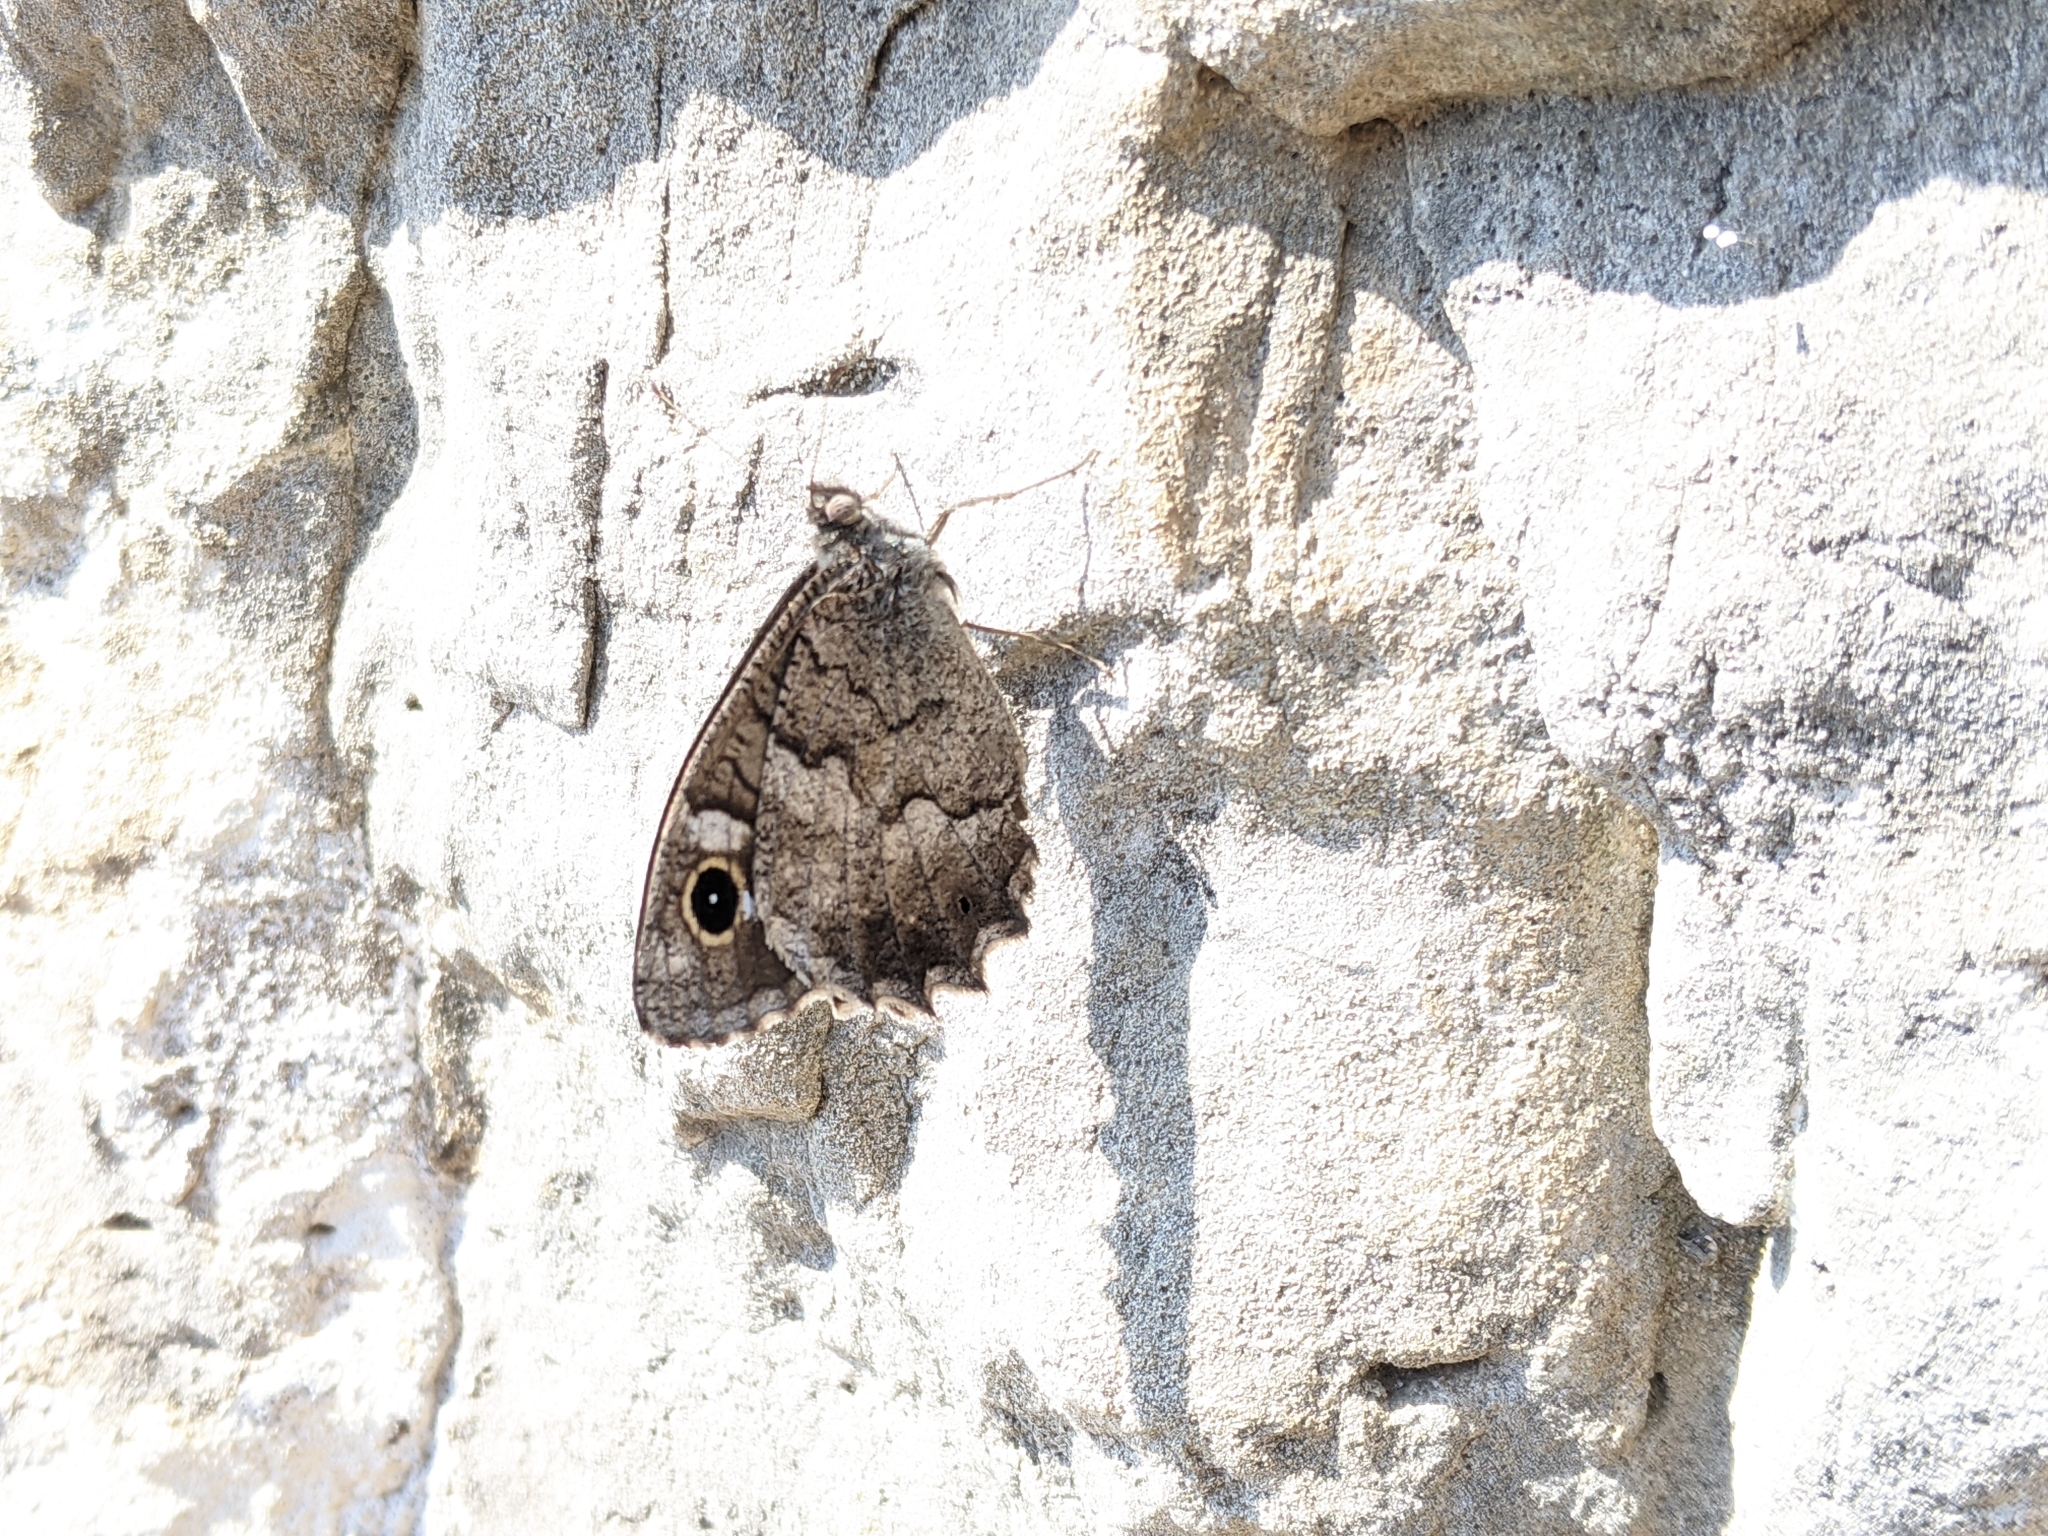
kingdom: Animalia
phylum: Arthropoda
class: Insecta
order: Lepidoptera
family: Nymphalidae
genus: Hipparchia
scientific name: Hipparchia statilinus
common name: Tree grayling
